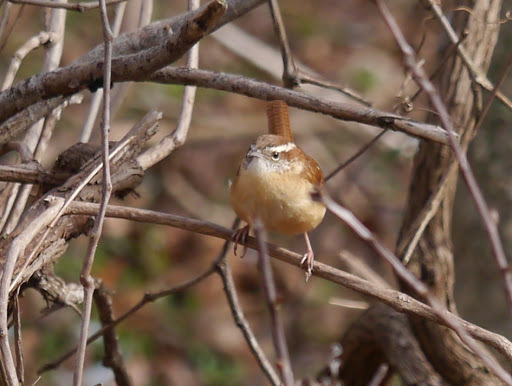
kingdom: Animalia
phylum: Chordata
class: Aves
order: Passeriformes
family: Troglodytidae
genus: Thryothorus
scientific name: Thryothorus ludovicianus
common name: Carolina wren
